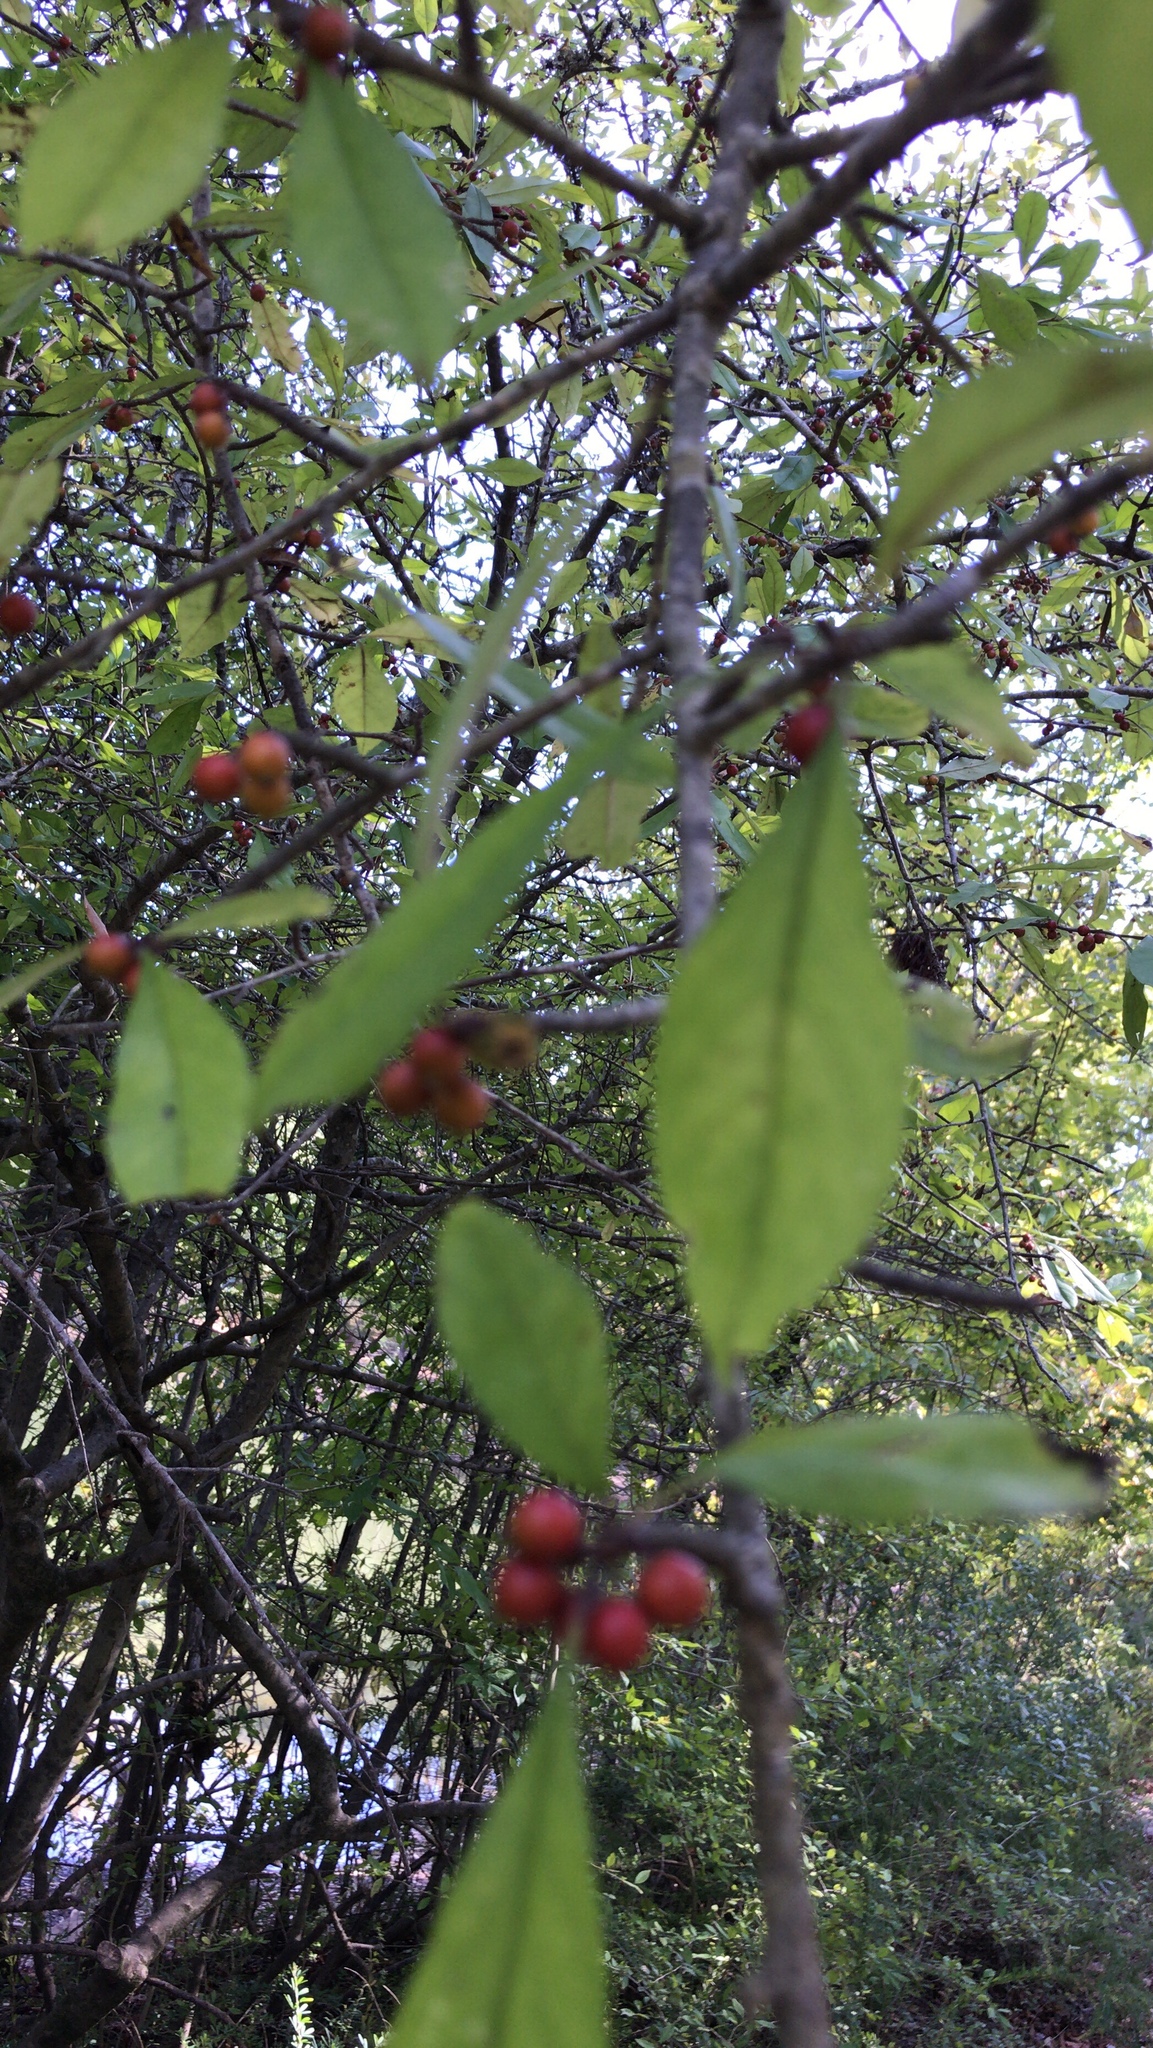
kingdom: Plantae
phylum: Tracheophyta
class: Magnoliopsida
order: Aquifoliales
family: Aquifoliaceae
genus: Ilex
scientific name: Ilex decidua
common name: Possum-haw
